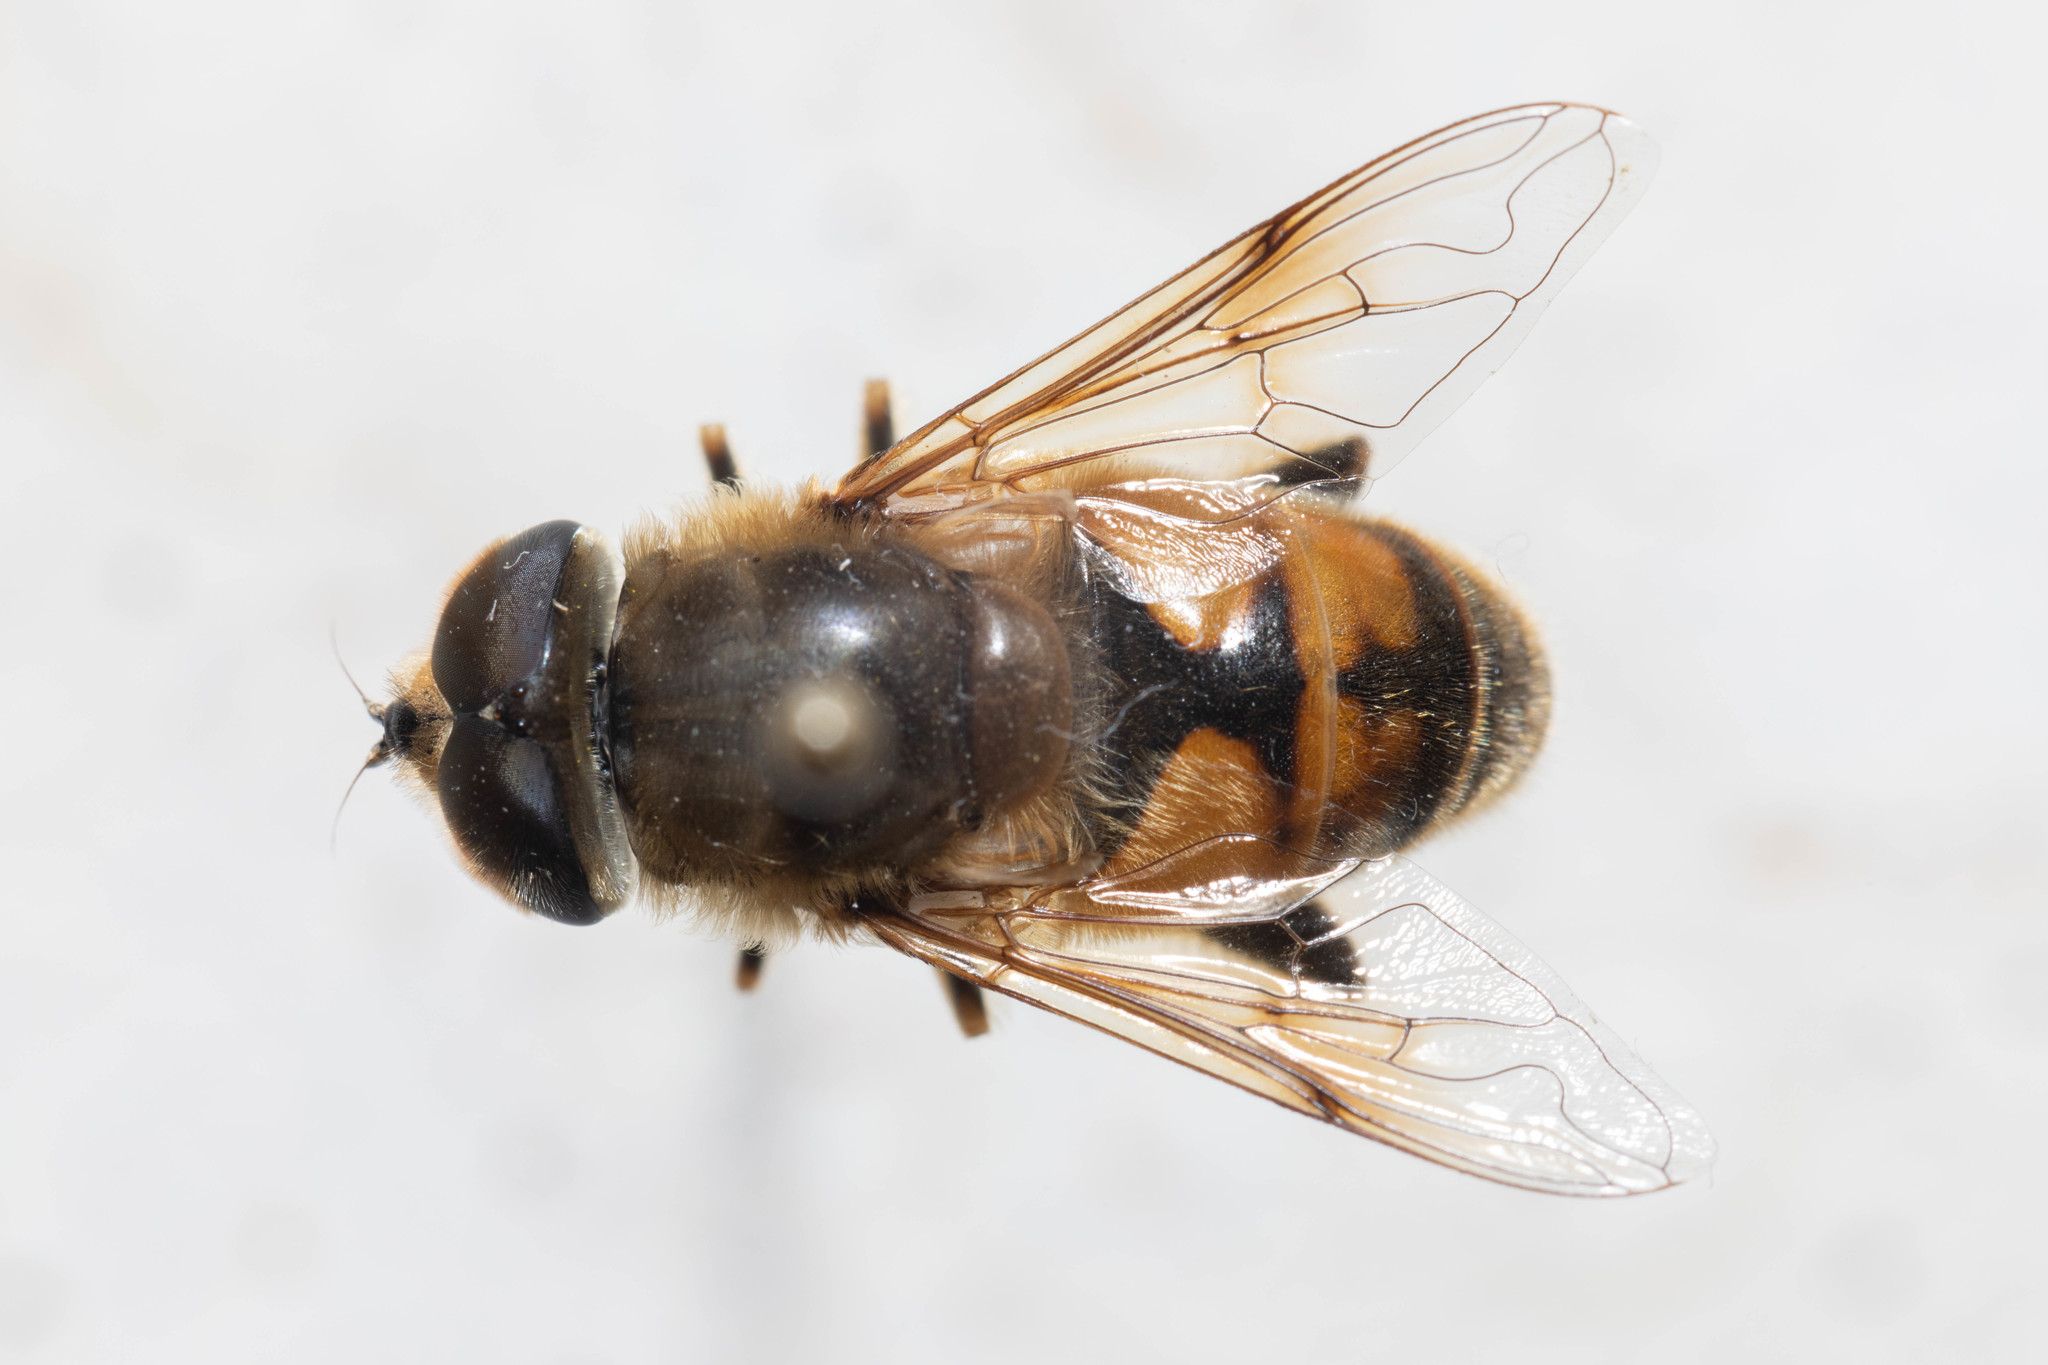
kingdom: Animalia
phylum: Arthropoda
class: Insecta
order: Diptera
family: Syrphidae
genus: Eristalis
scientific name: Eristalis tenax
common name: Drone fly
